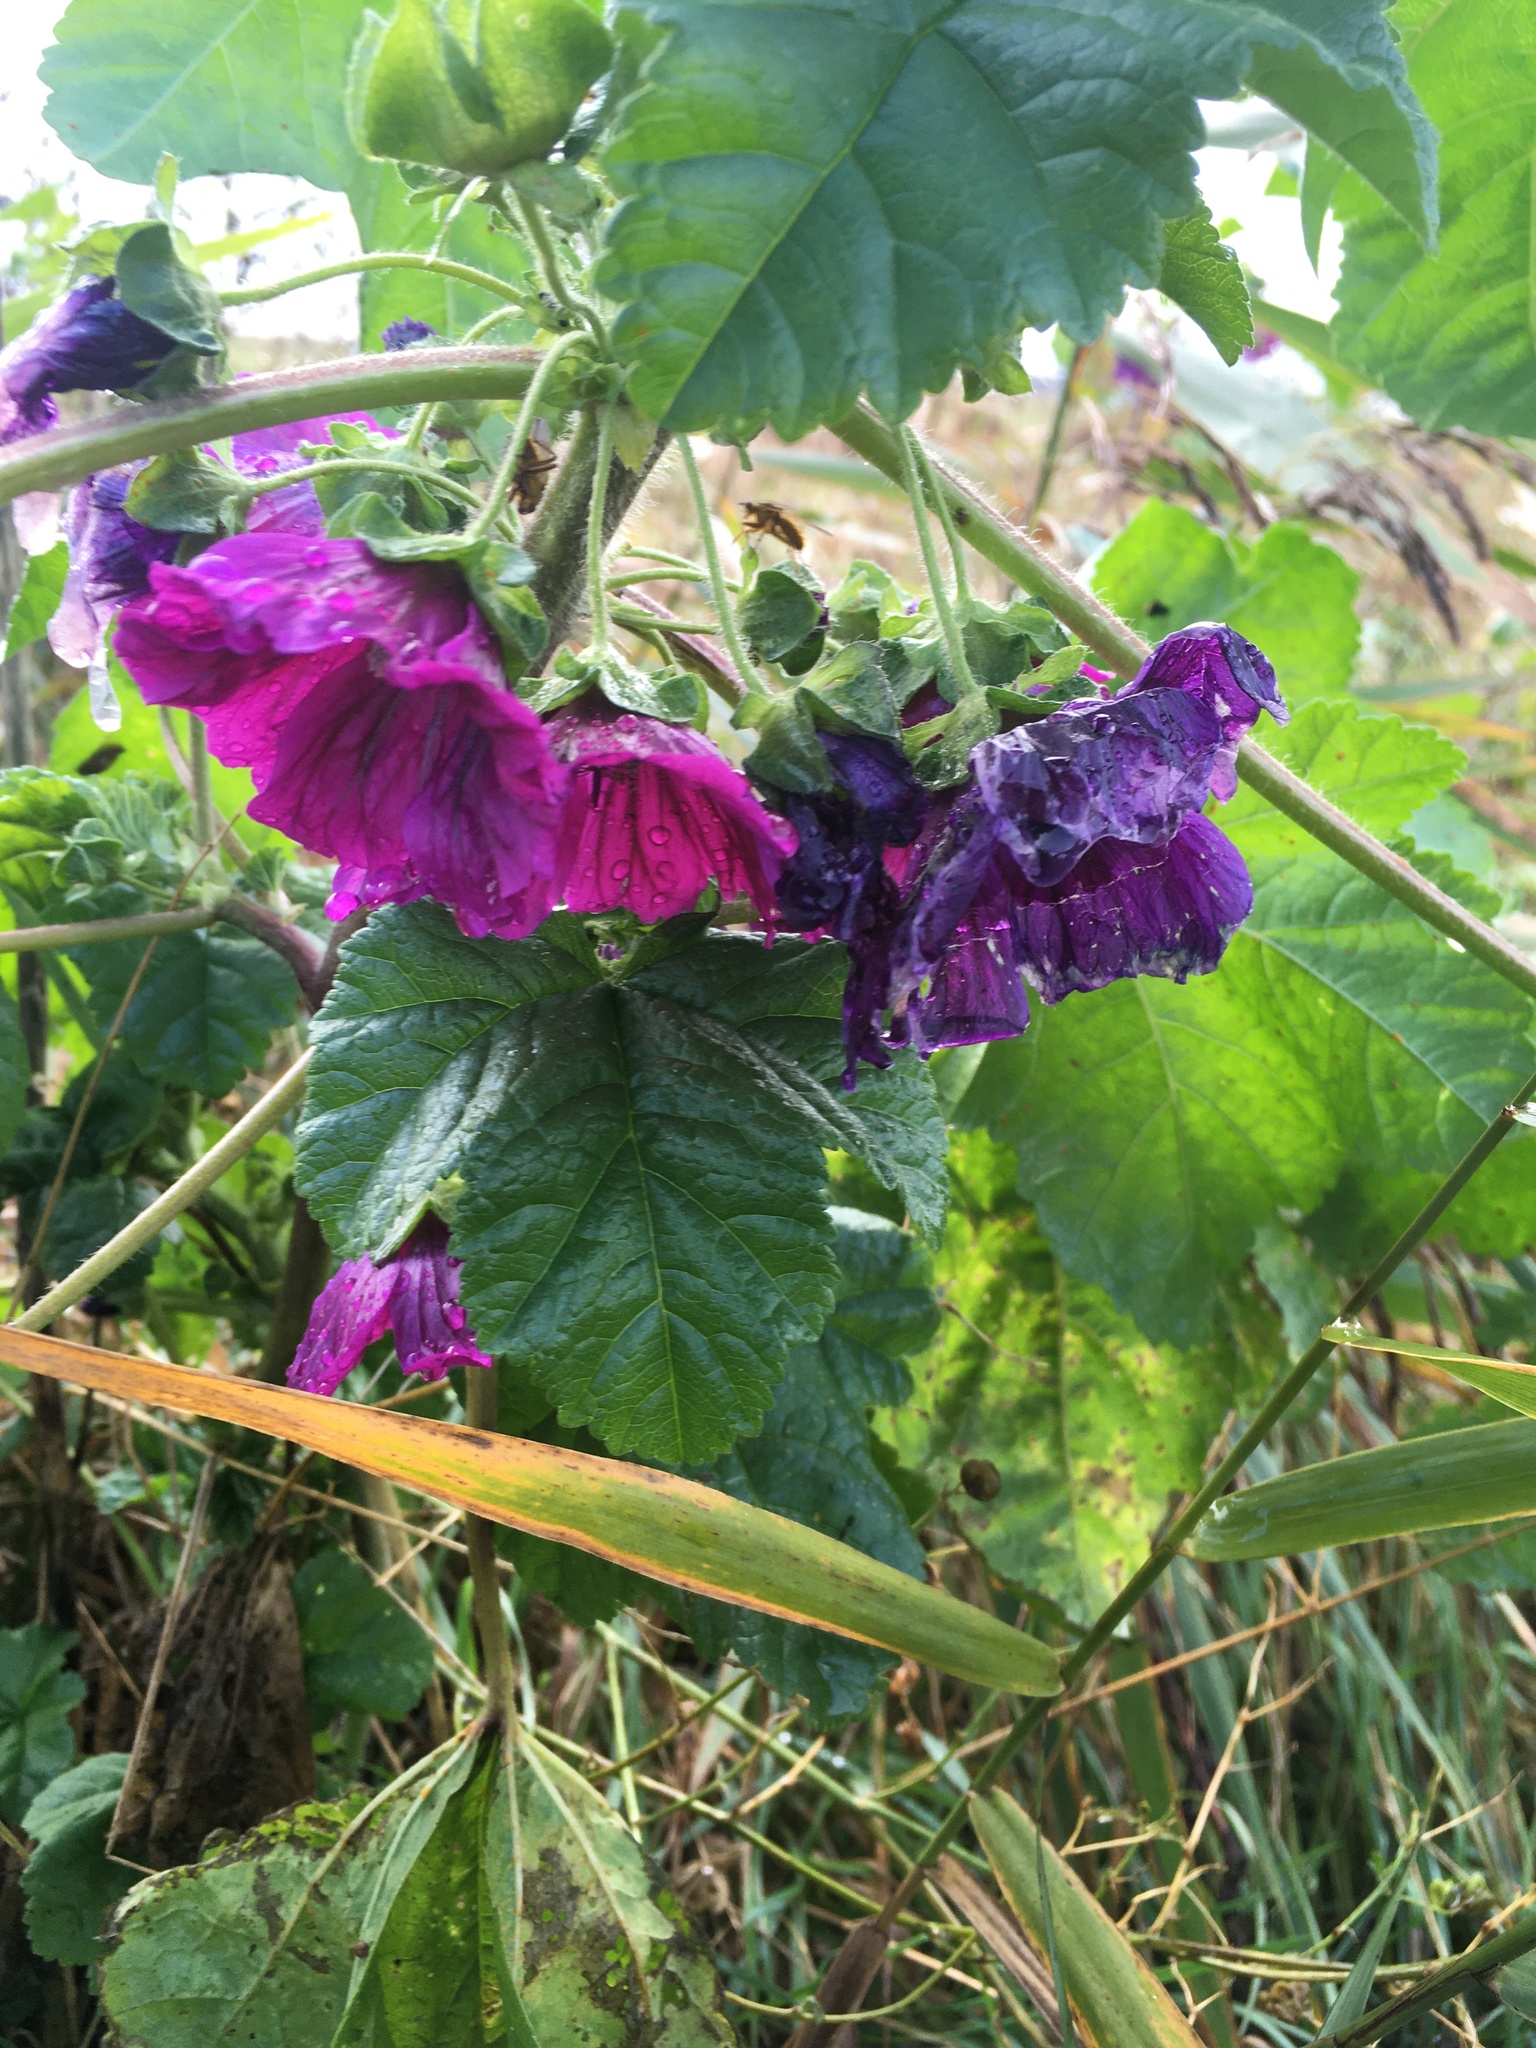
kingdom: Plantae
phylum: Tracheophyta
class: Magnoliopsida
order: Malvales
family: Malvaceae
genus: Malva
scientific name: Malva sylvestris
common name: Common mallow
